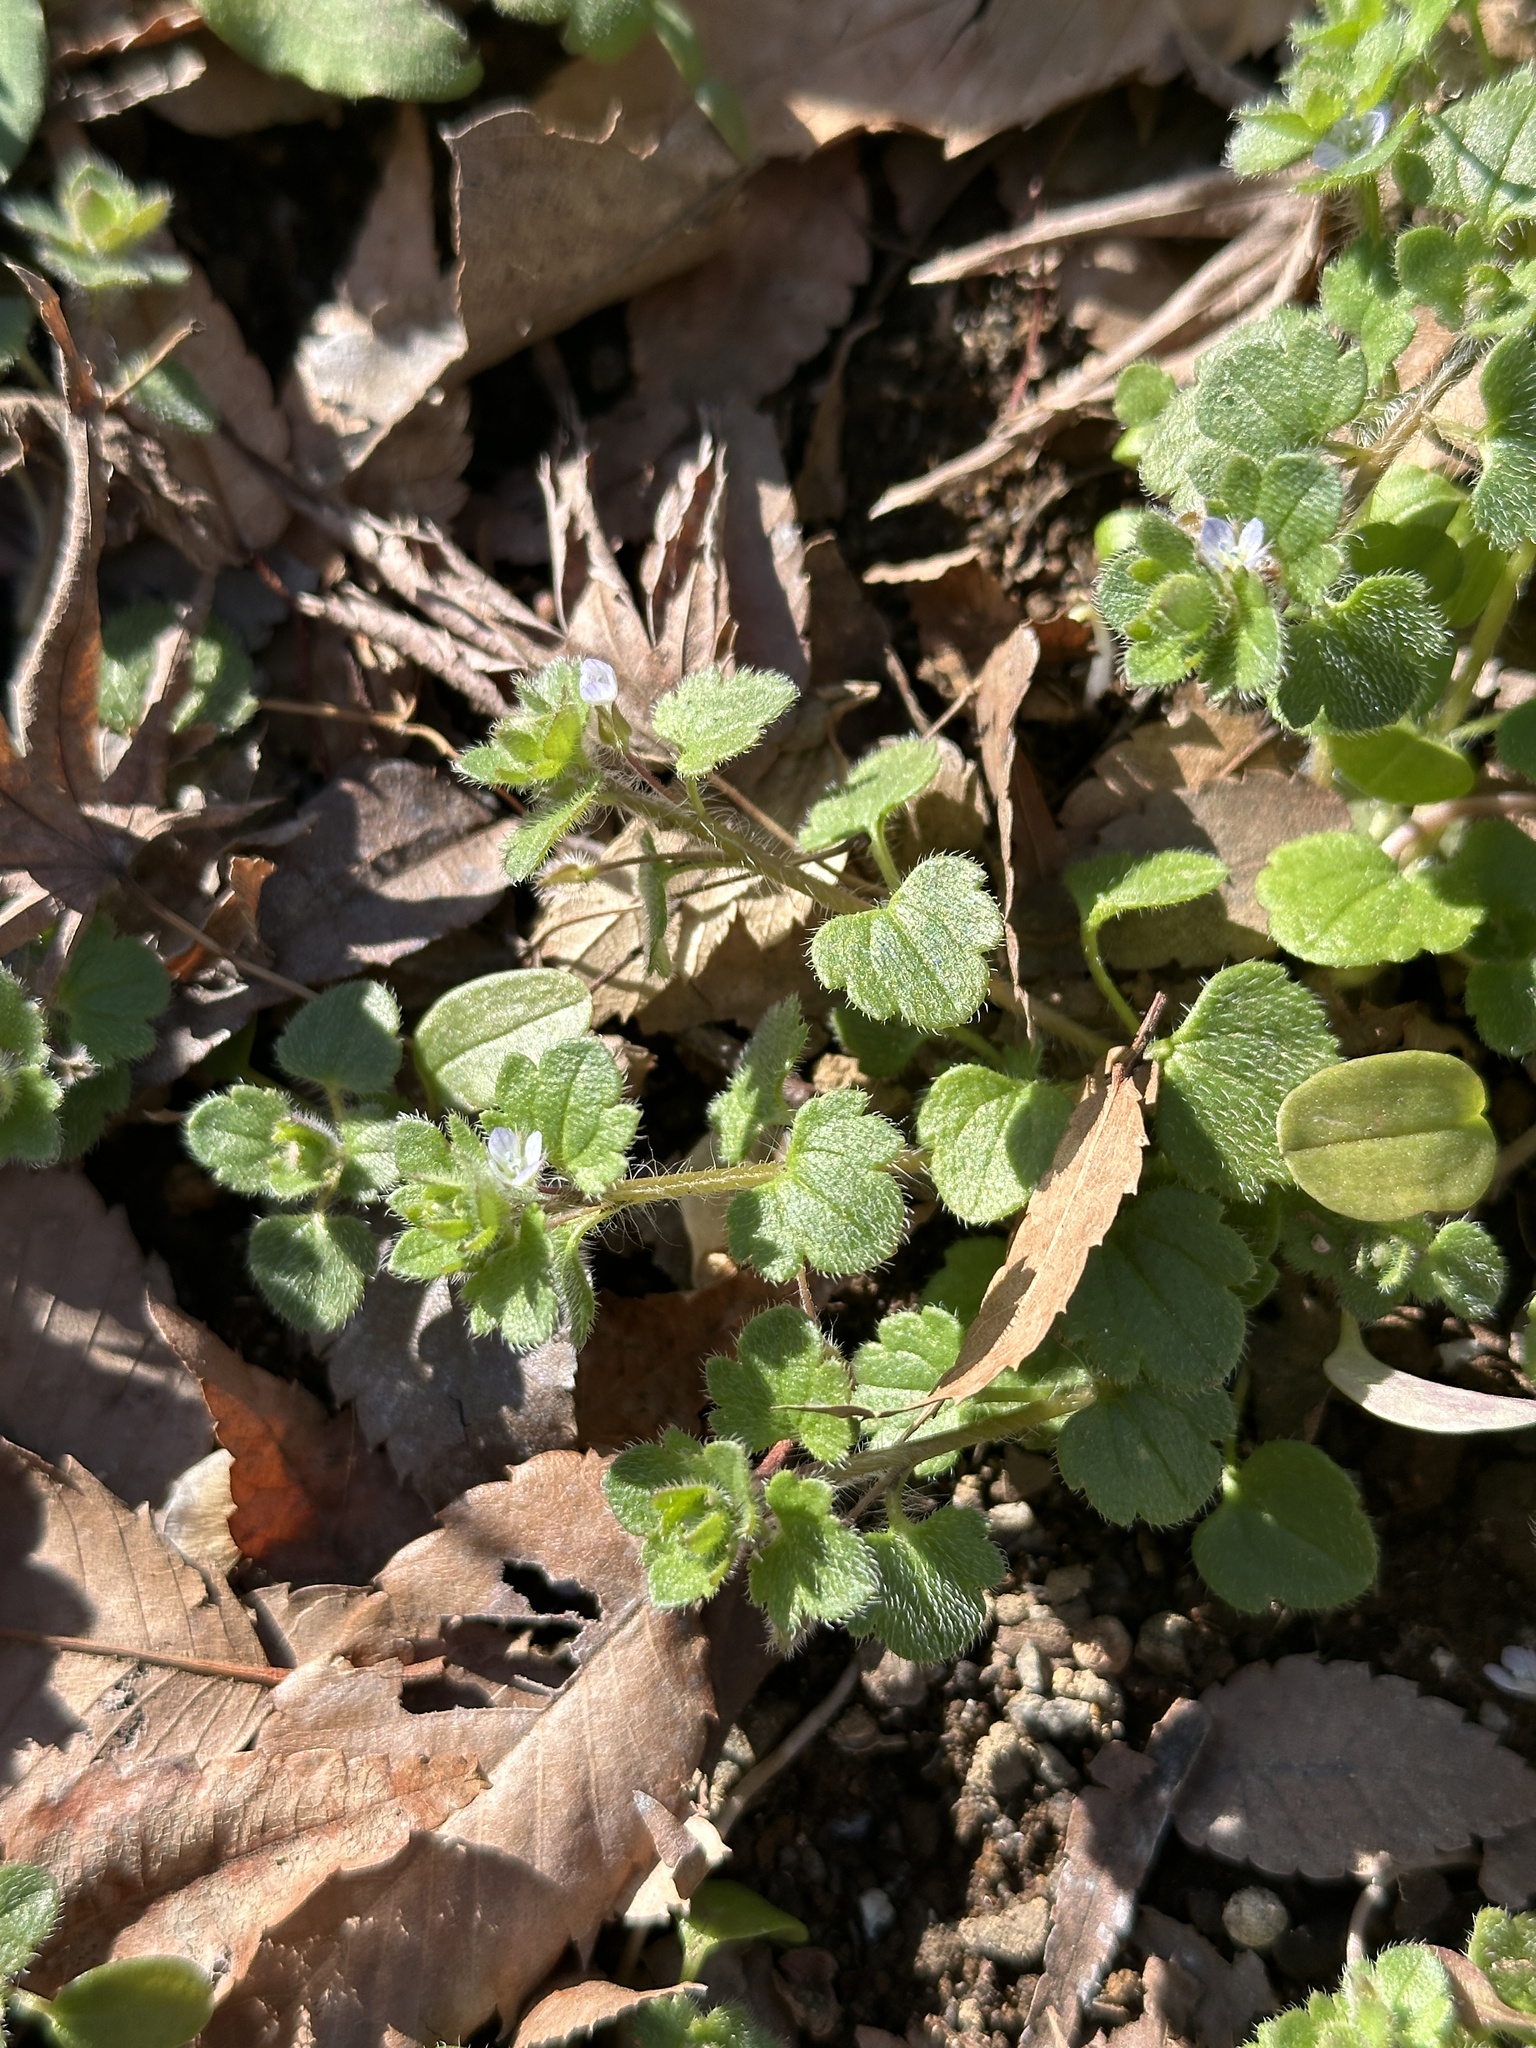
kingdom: Plantae
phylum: Tracheophyta
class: Magnoliopsida
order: Lamiales
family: Plantaginaceae
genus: Veronica
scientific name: Veronica hederifolia
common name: Ivy-leaved speedwell
